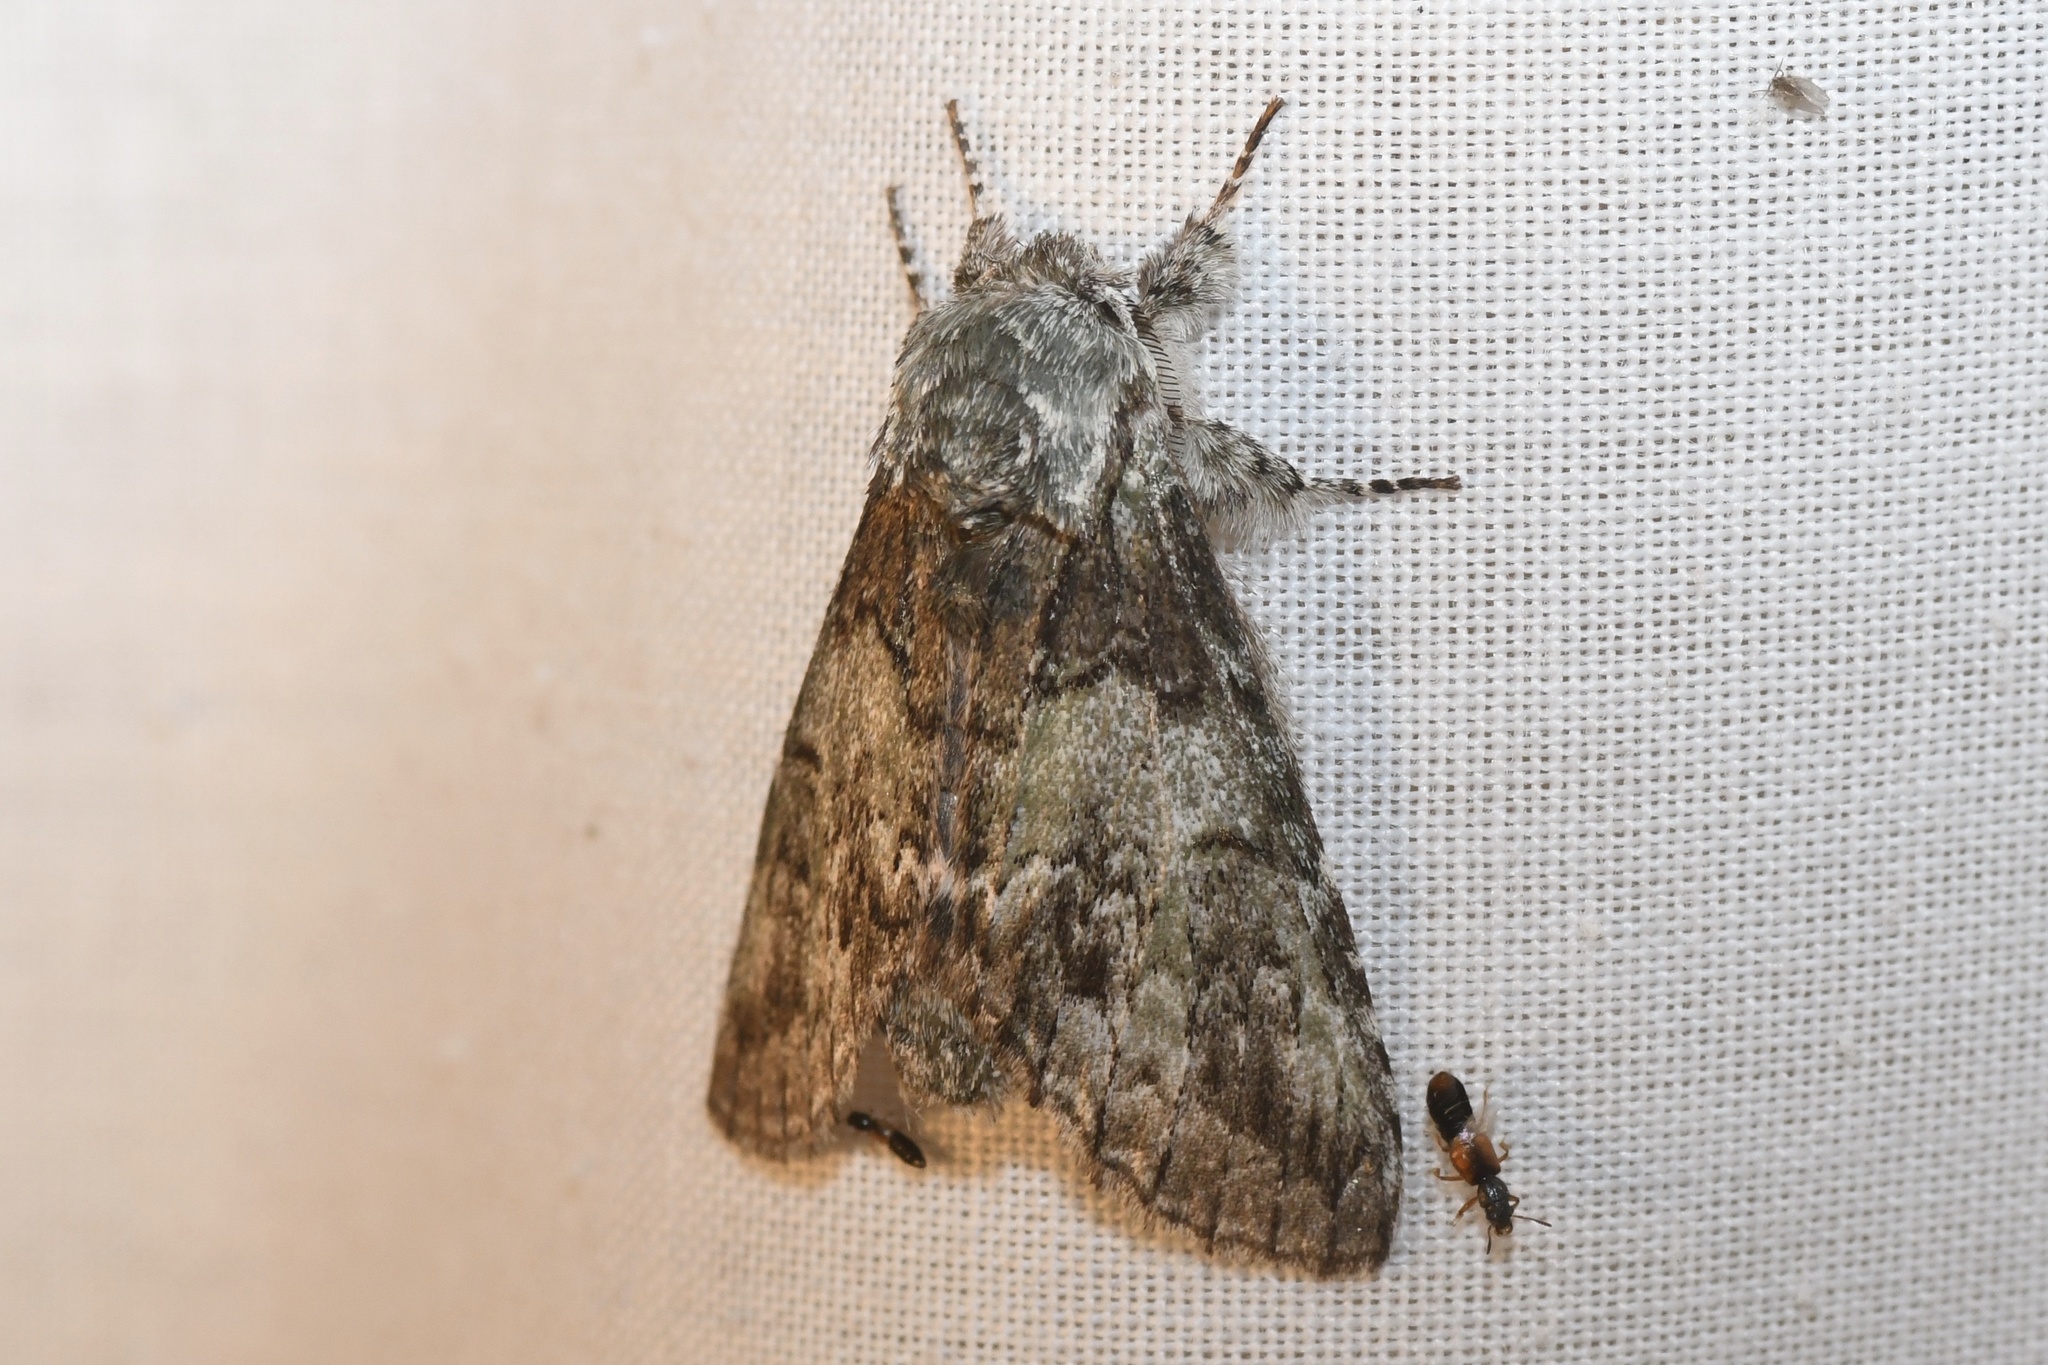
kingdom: Animalia
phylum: Arthropoda
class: Insecta
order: Lepidoptera
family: Notodontidae
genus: Macrurocampa
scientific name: Macrurocampa marthesia
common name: Mottled prominent
